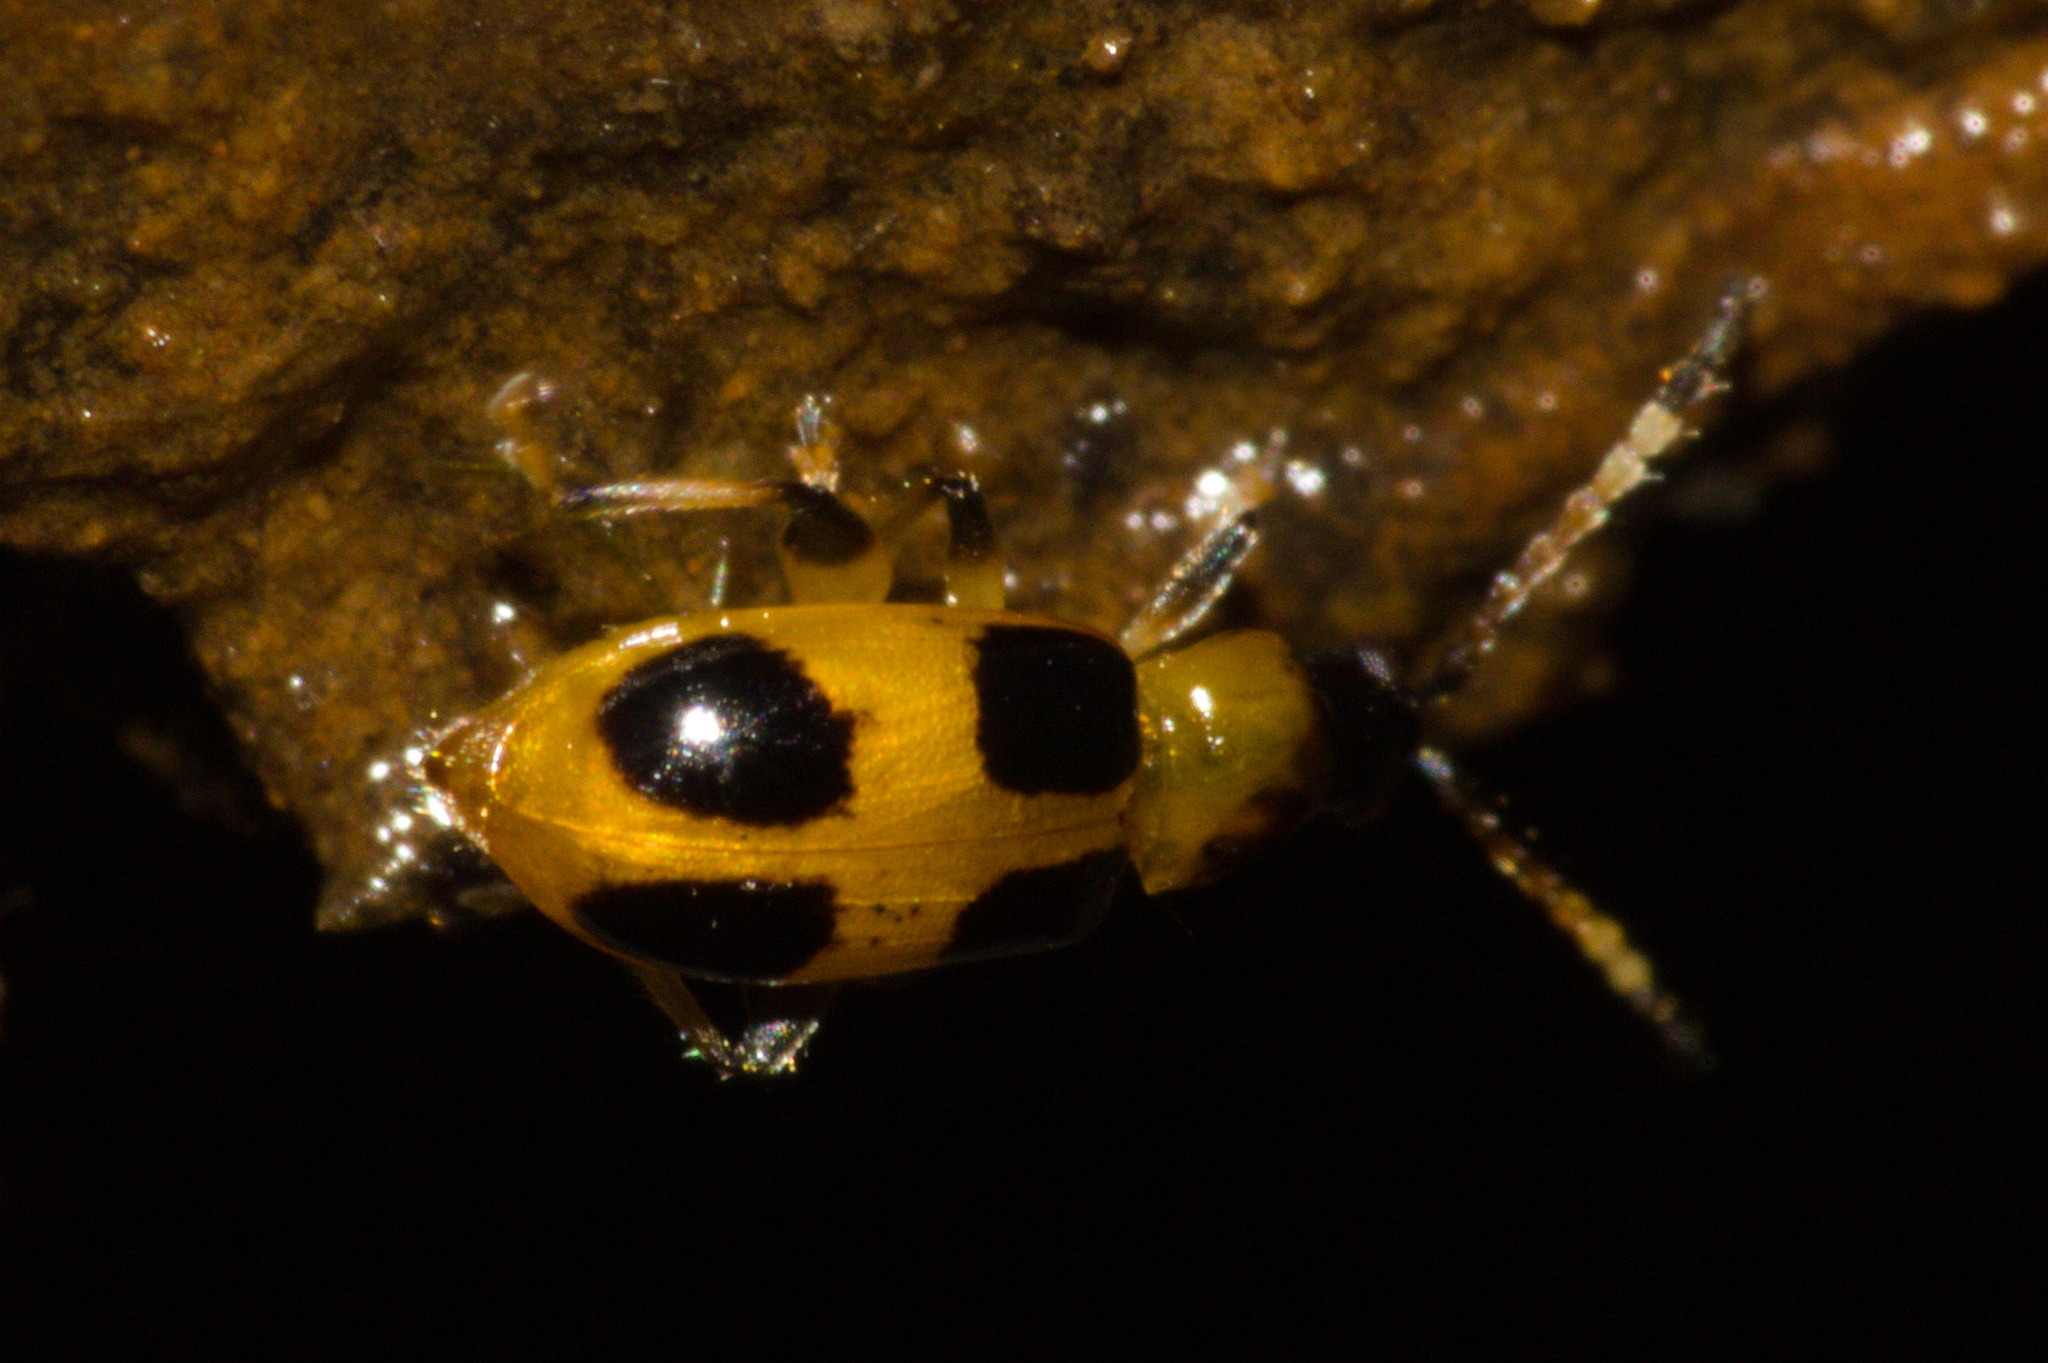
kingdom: Animalia
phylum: Arthropoda
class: Insecta
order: Coleoptera
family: Chrysomelidae
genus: Cornulactica
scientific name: Cornulactica
